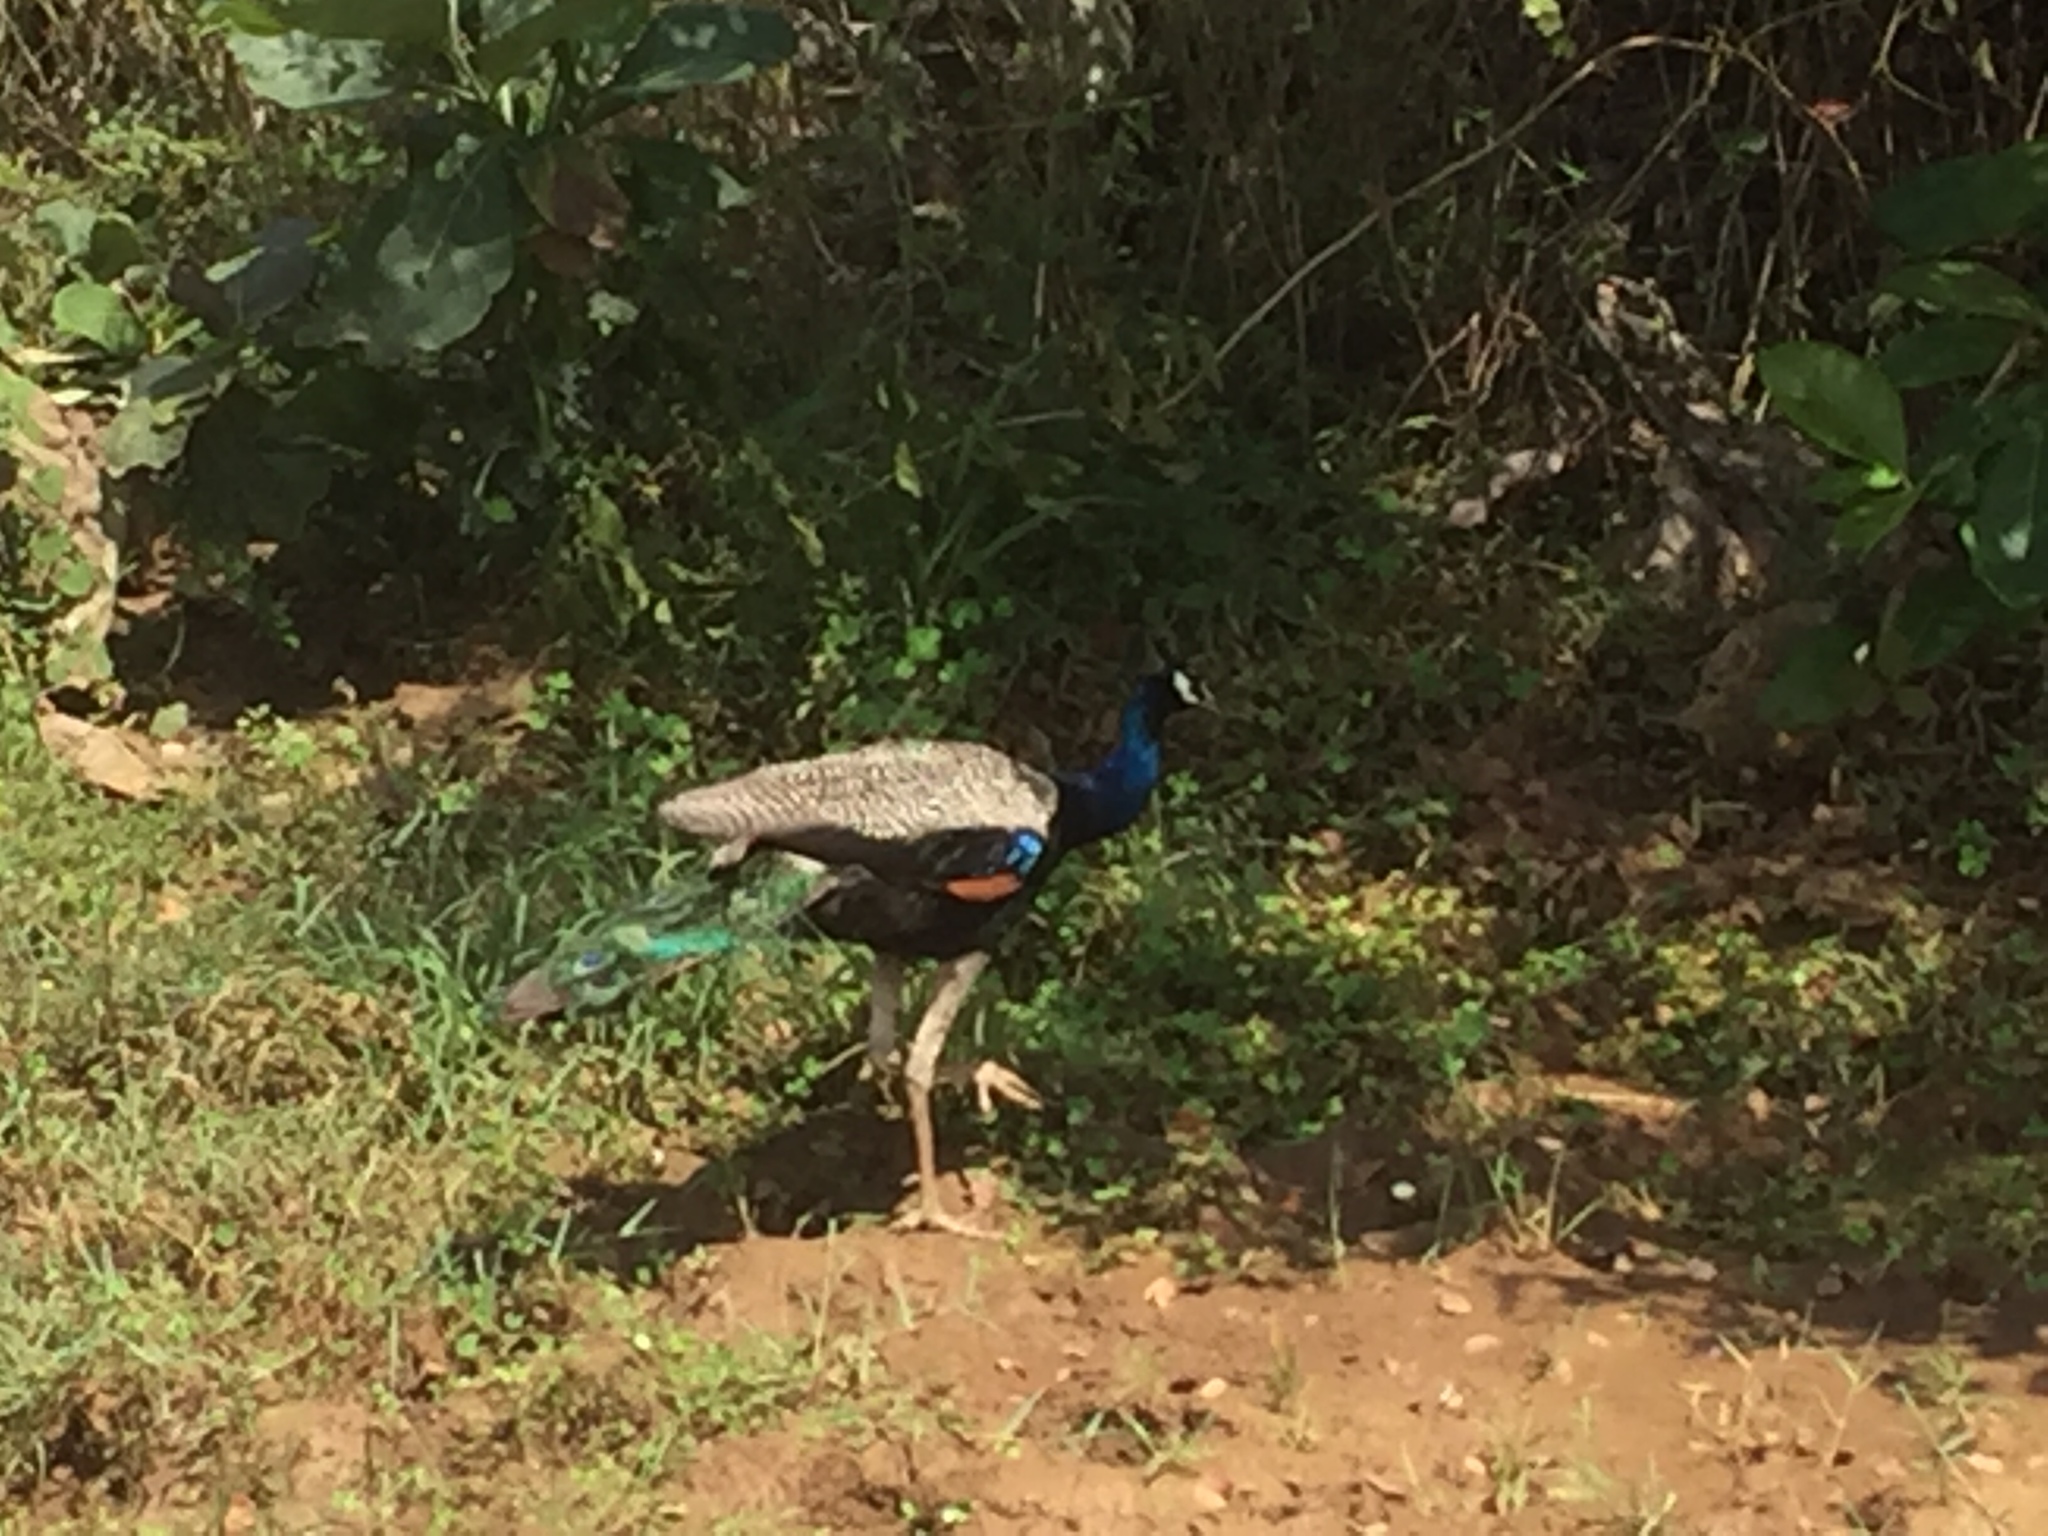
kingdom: Animalia
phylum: Chordata
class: Aves
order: Galliformes
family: Phasianidae
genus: Pavo
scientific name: Pavo cristatus
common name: Indian peafowl
